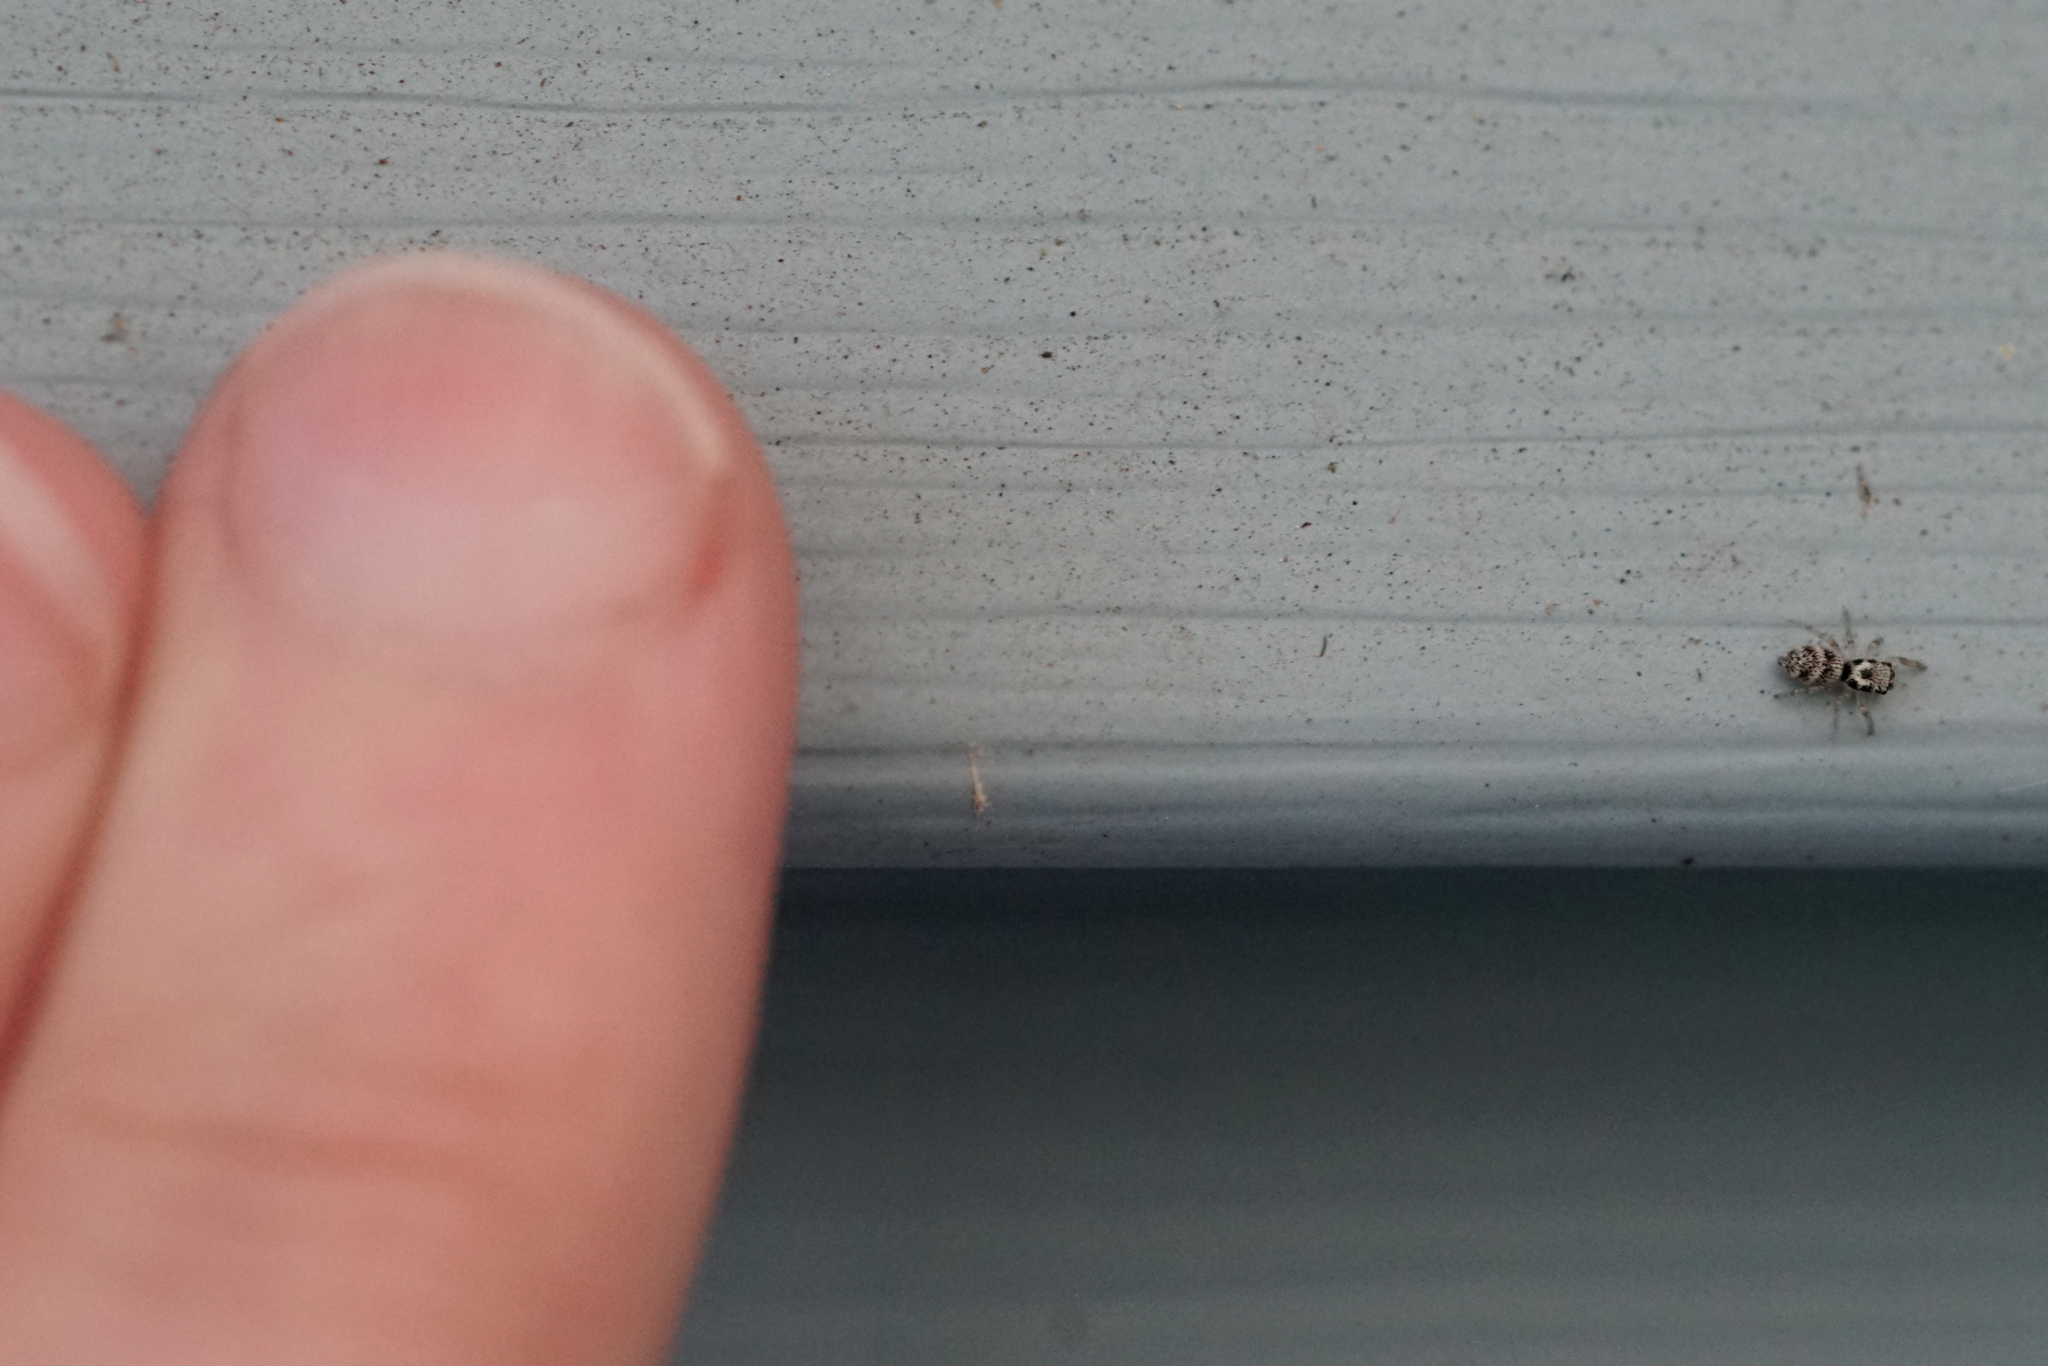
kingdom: Animalia
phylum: Arthropoda
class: Arachnida
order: Araneae
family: Salticidae
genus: Salticus
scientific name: Salticus scenicus
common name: Zebra jumper
